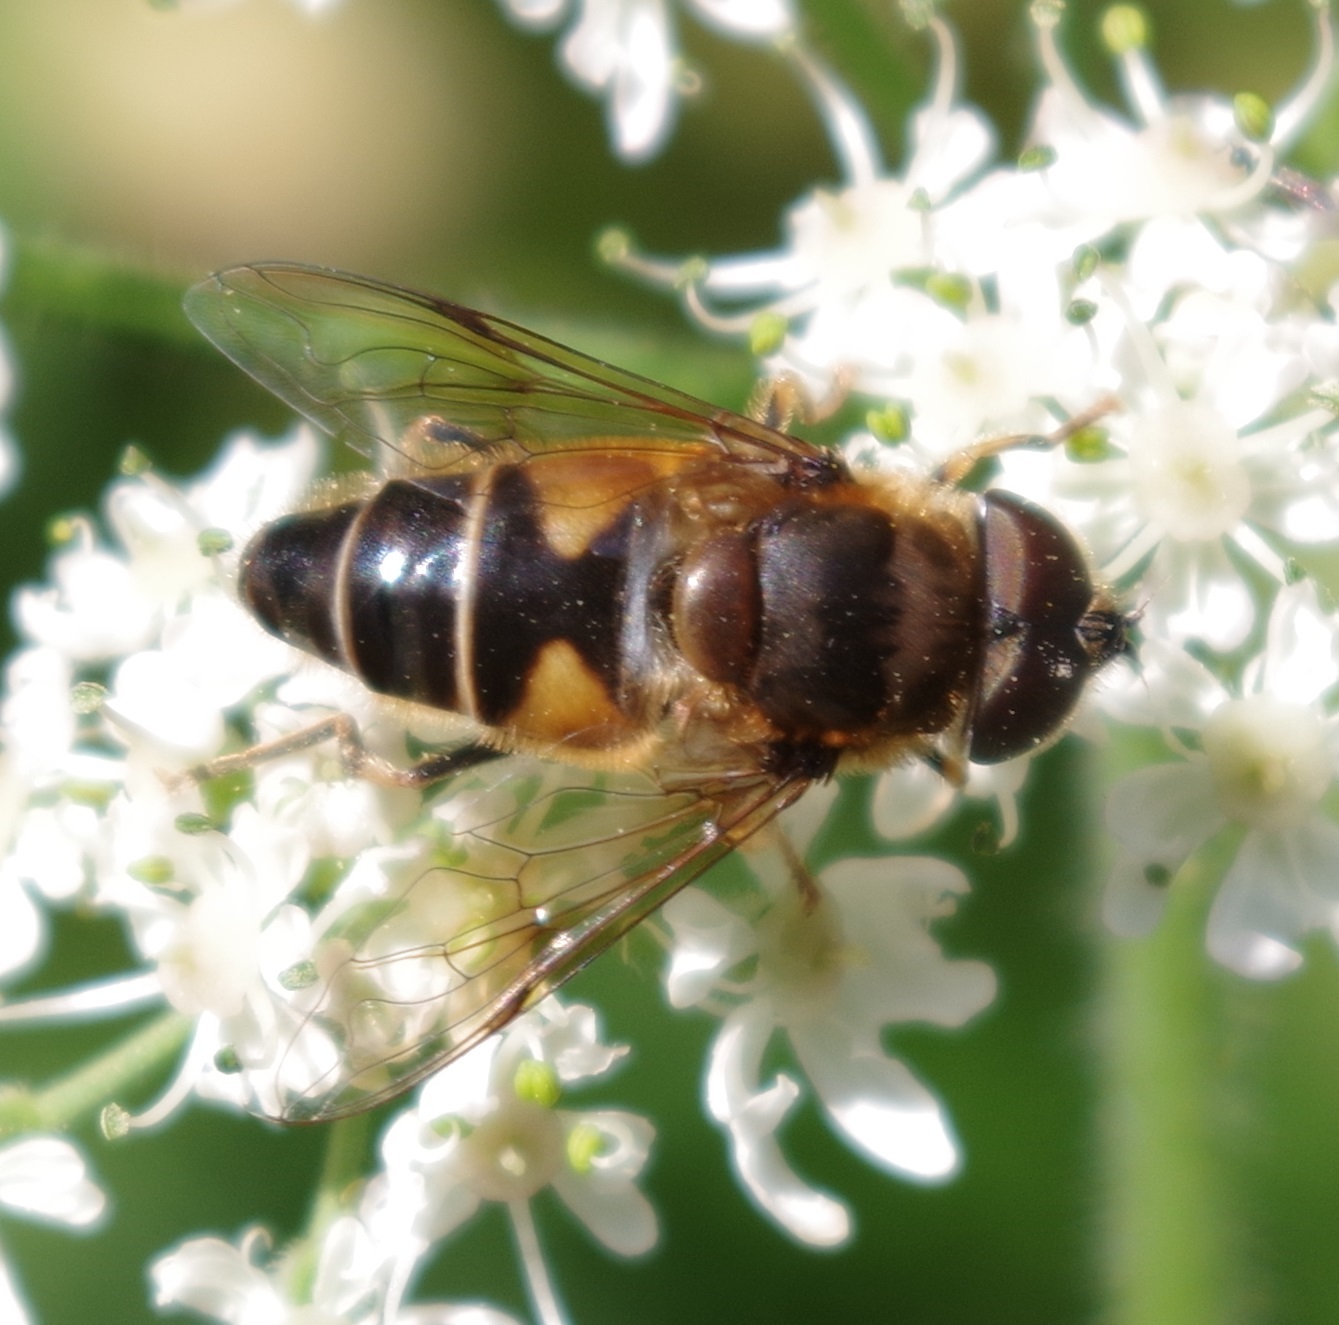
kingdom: Animalia
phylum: Arthropoda
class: Insecta
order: Diptera
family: Syrphidae
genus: Eristalis
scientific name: Eristalis pertinax
